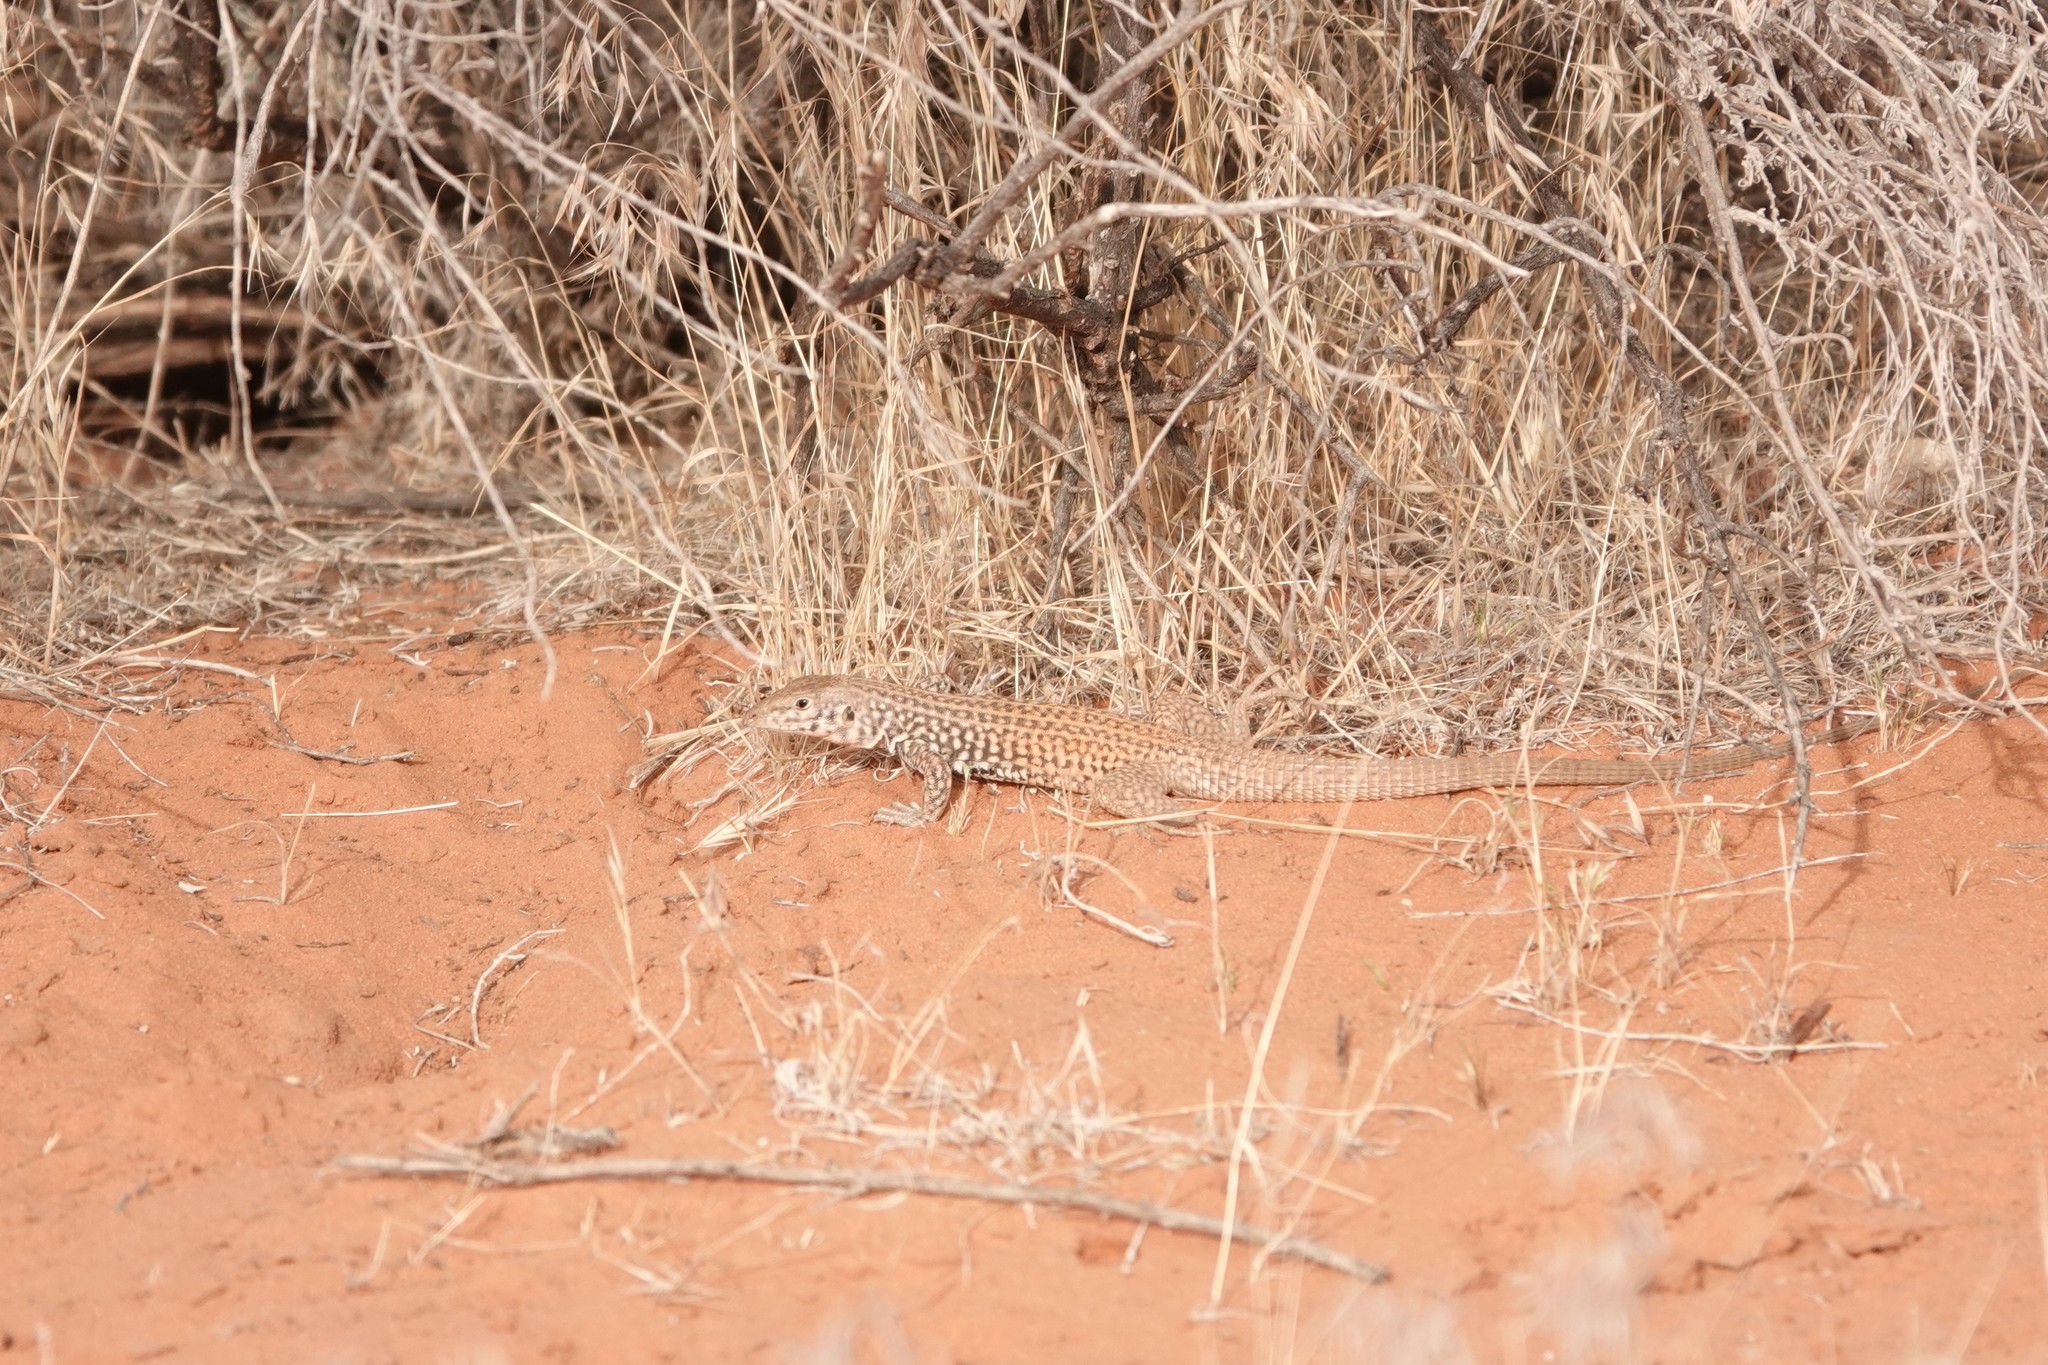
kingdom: Animalia
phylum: Chordata
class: Squamata
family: Teiidae
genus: Aspidoscelis
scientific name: Aspidoscelis tigris
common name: Tiger whiptail
